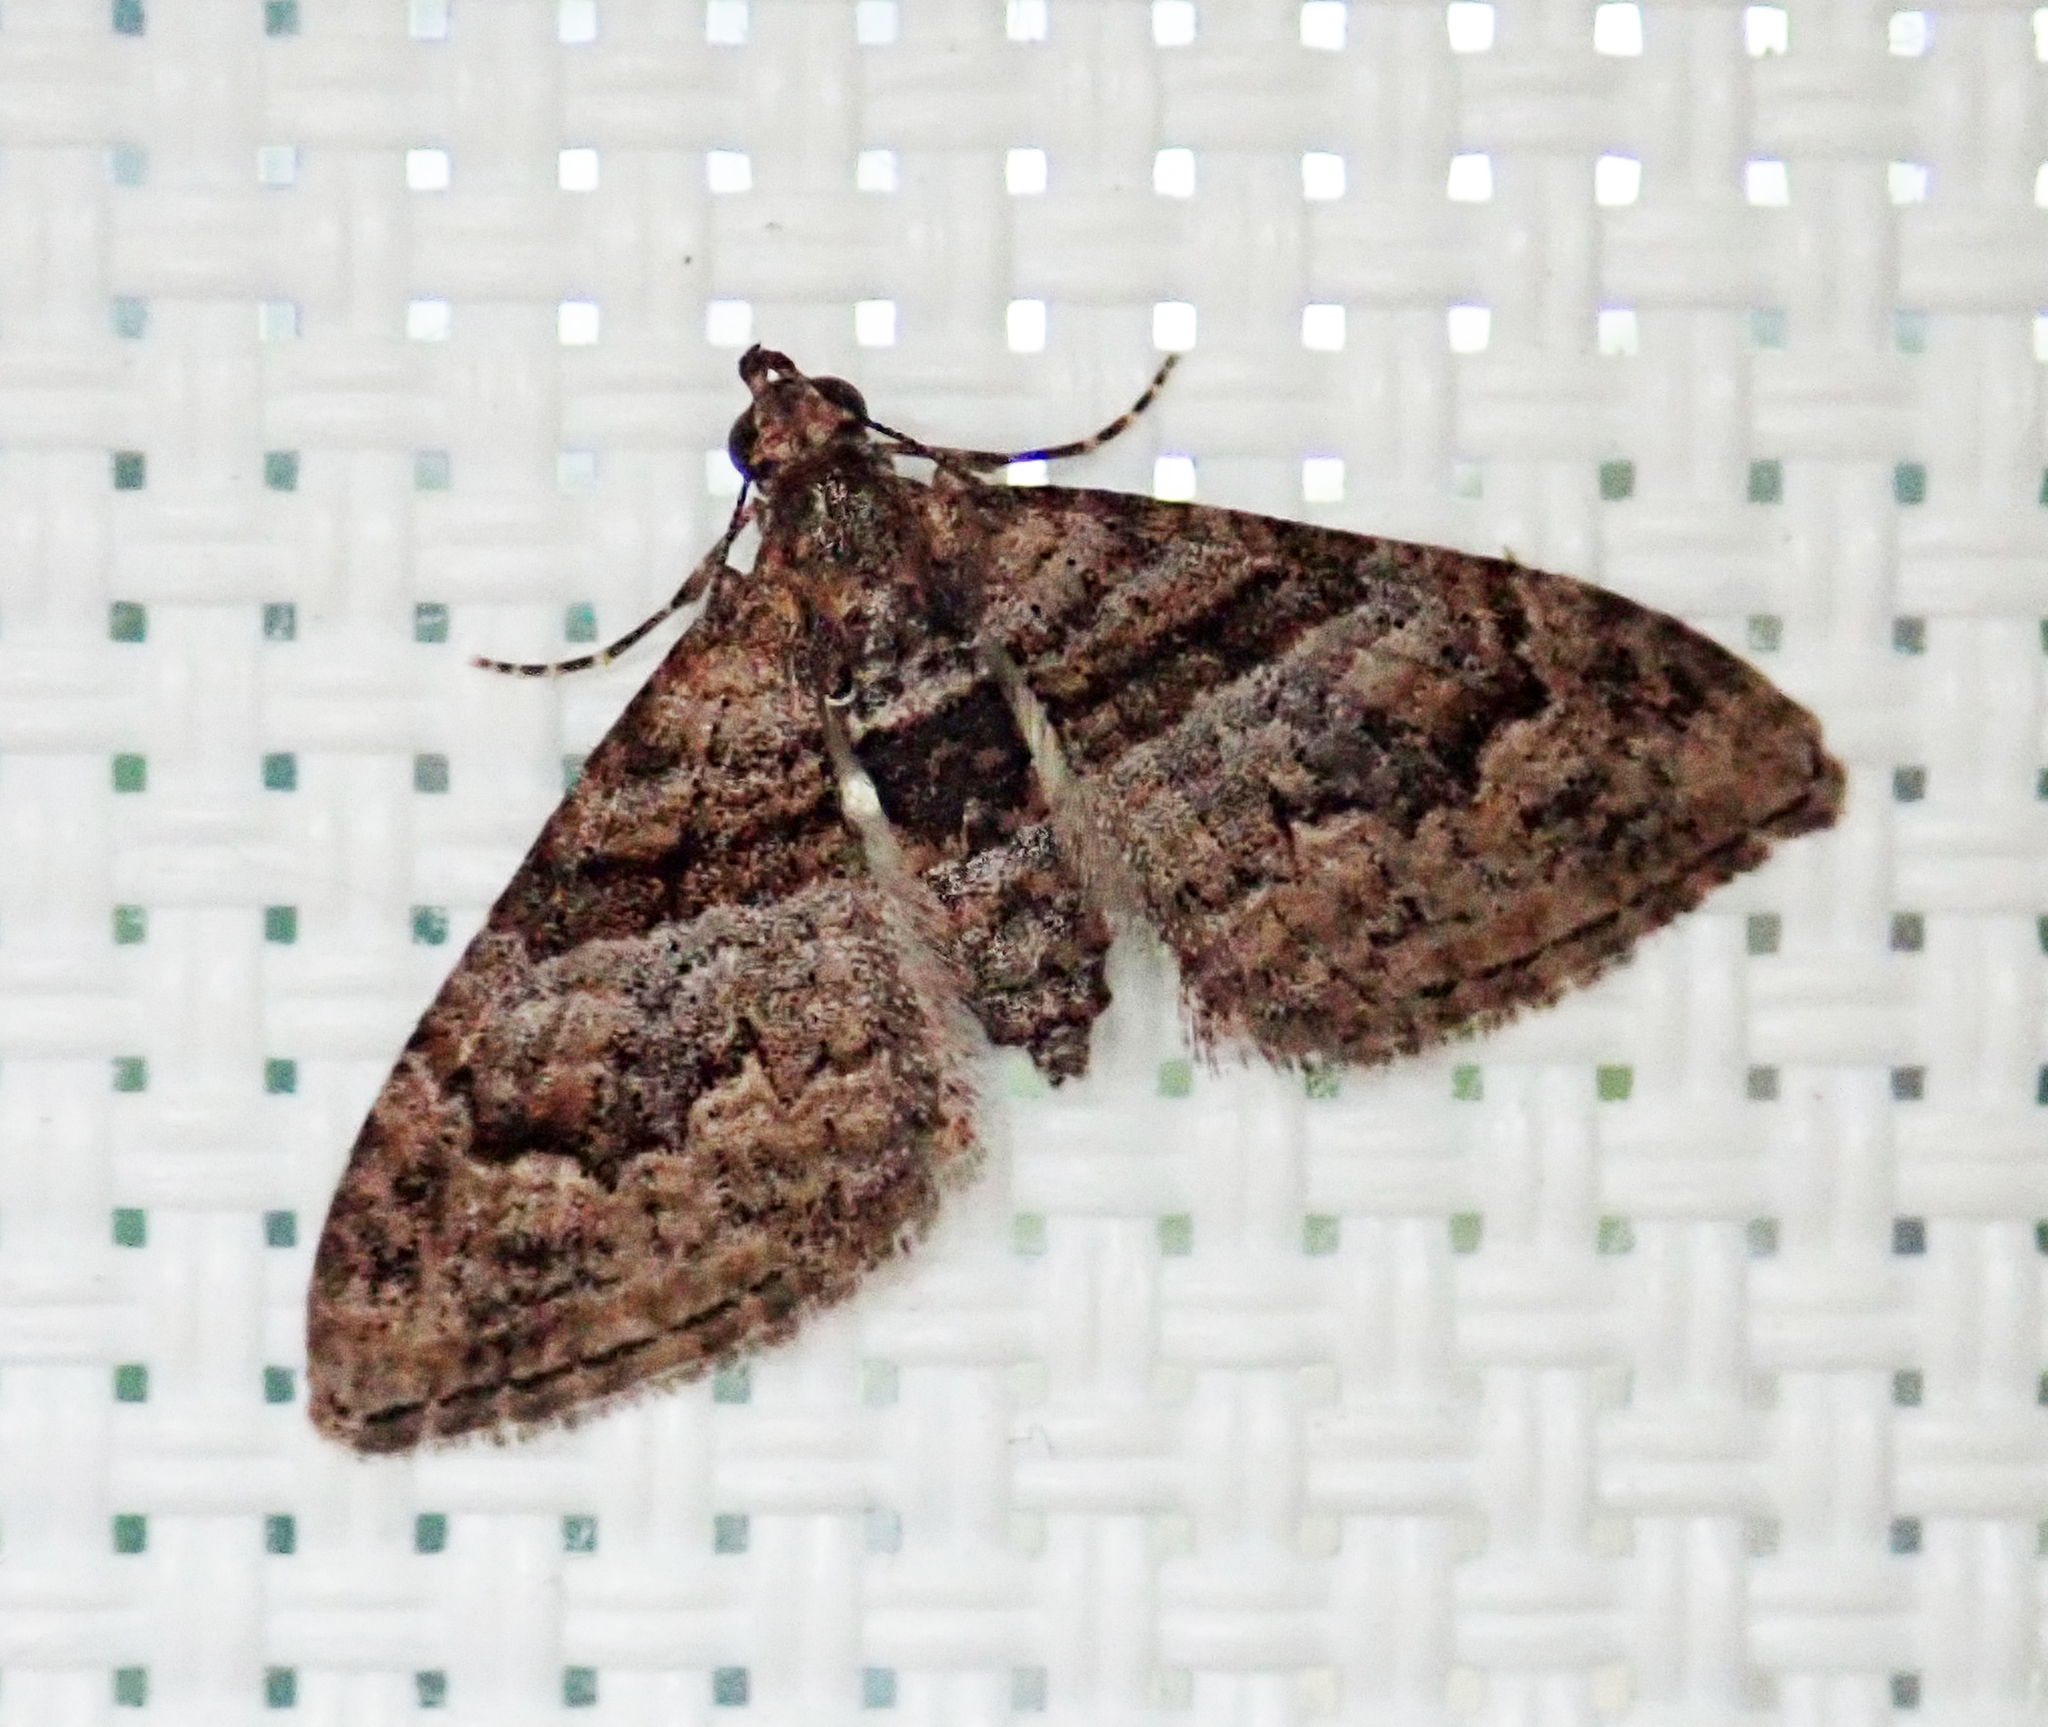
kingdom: Animalia
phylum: Arthropoda
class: Insecta
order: Lepidoptera
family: Geometridae
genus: Phrissogonus
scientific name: Phrissogonus laticostata
